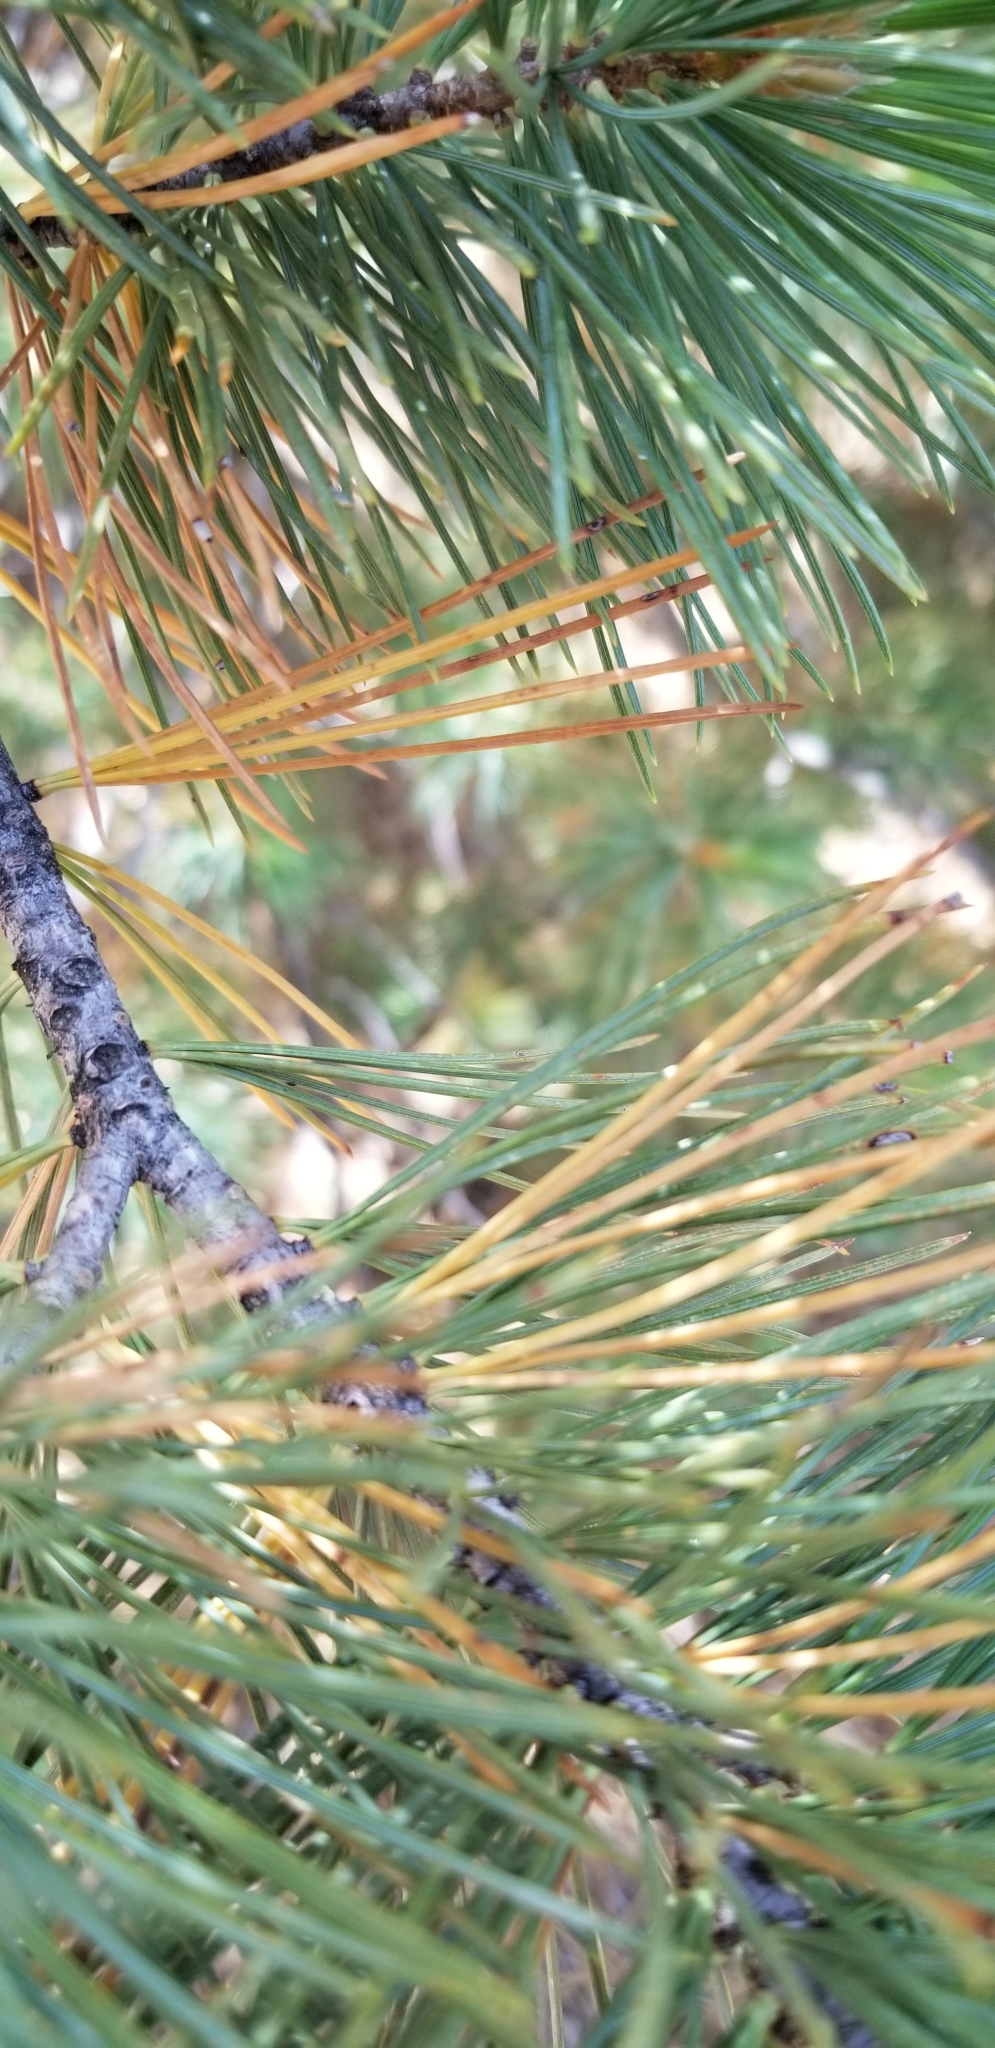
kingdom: Plantae
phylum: Tracheophyta
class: Pinopsida
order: Pinales
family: Pinaceae
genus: Pinus
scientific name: Pinus lambertiana
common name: Sugar pine
